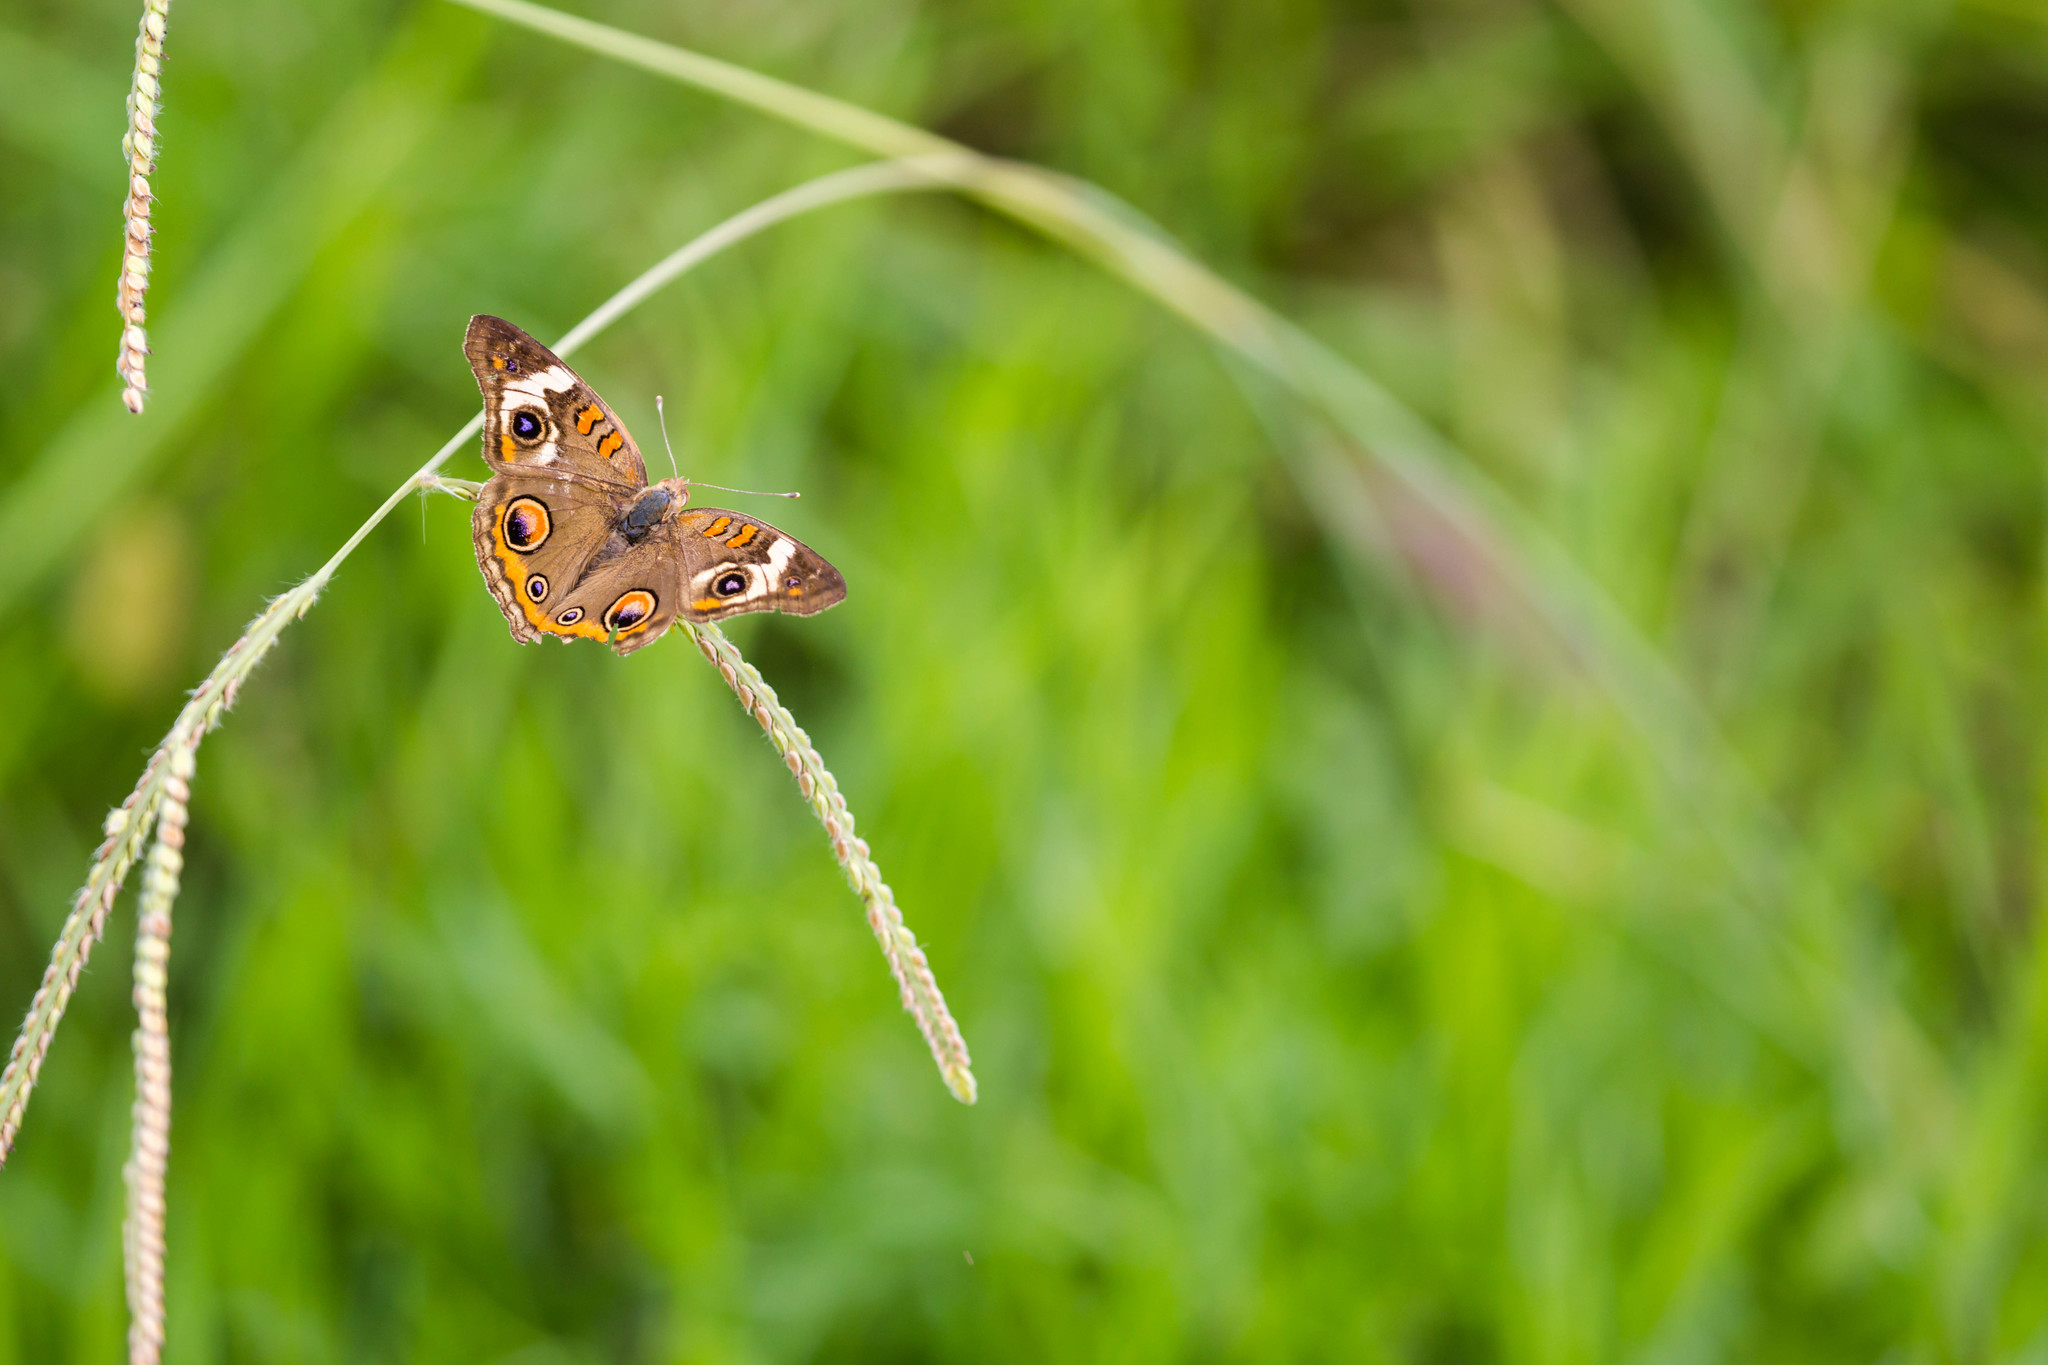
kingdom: Animalia
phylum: Arthropoda
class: Insecta
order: Lepidoptera
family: Nymphalidae
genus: Junonia
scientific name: Junonia coenia
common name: Common buckeye
